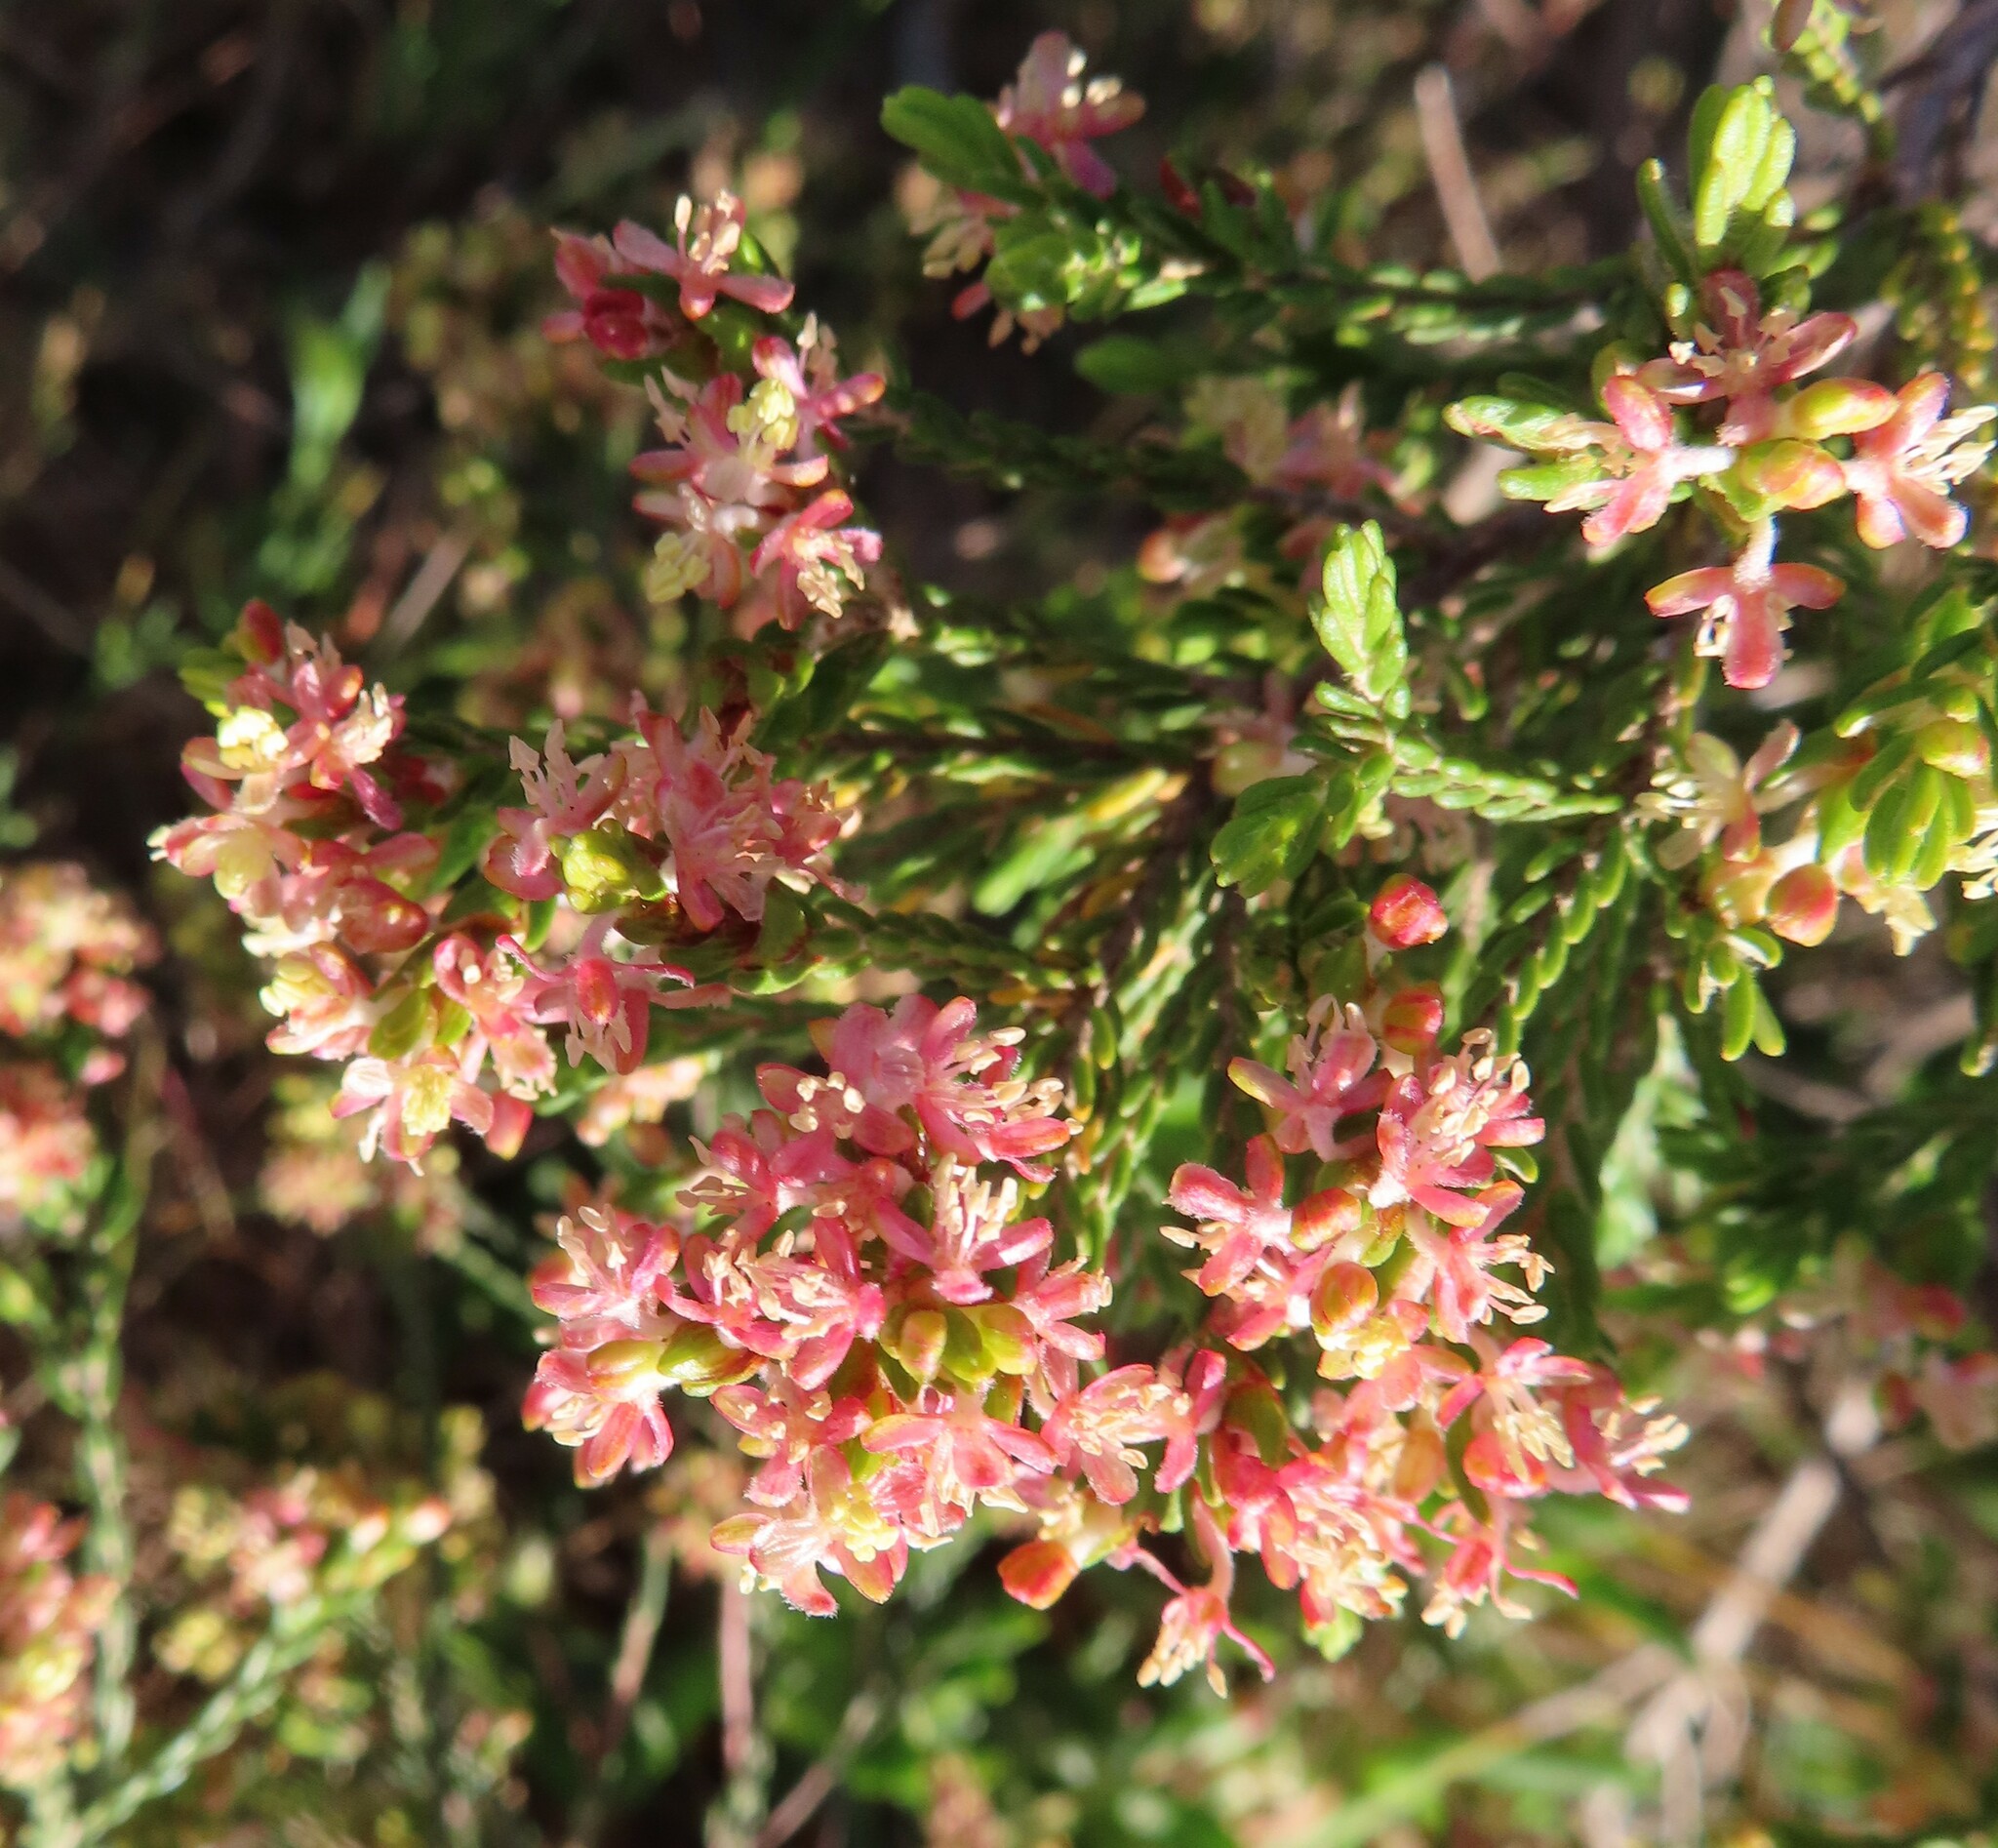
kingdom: Plantae
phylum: Tracheophyta
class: Magnoliopsida
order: Malvales
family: Thymelaeaceae
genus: Passerina
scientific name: Passerina corymbosa
